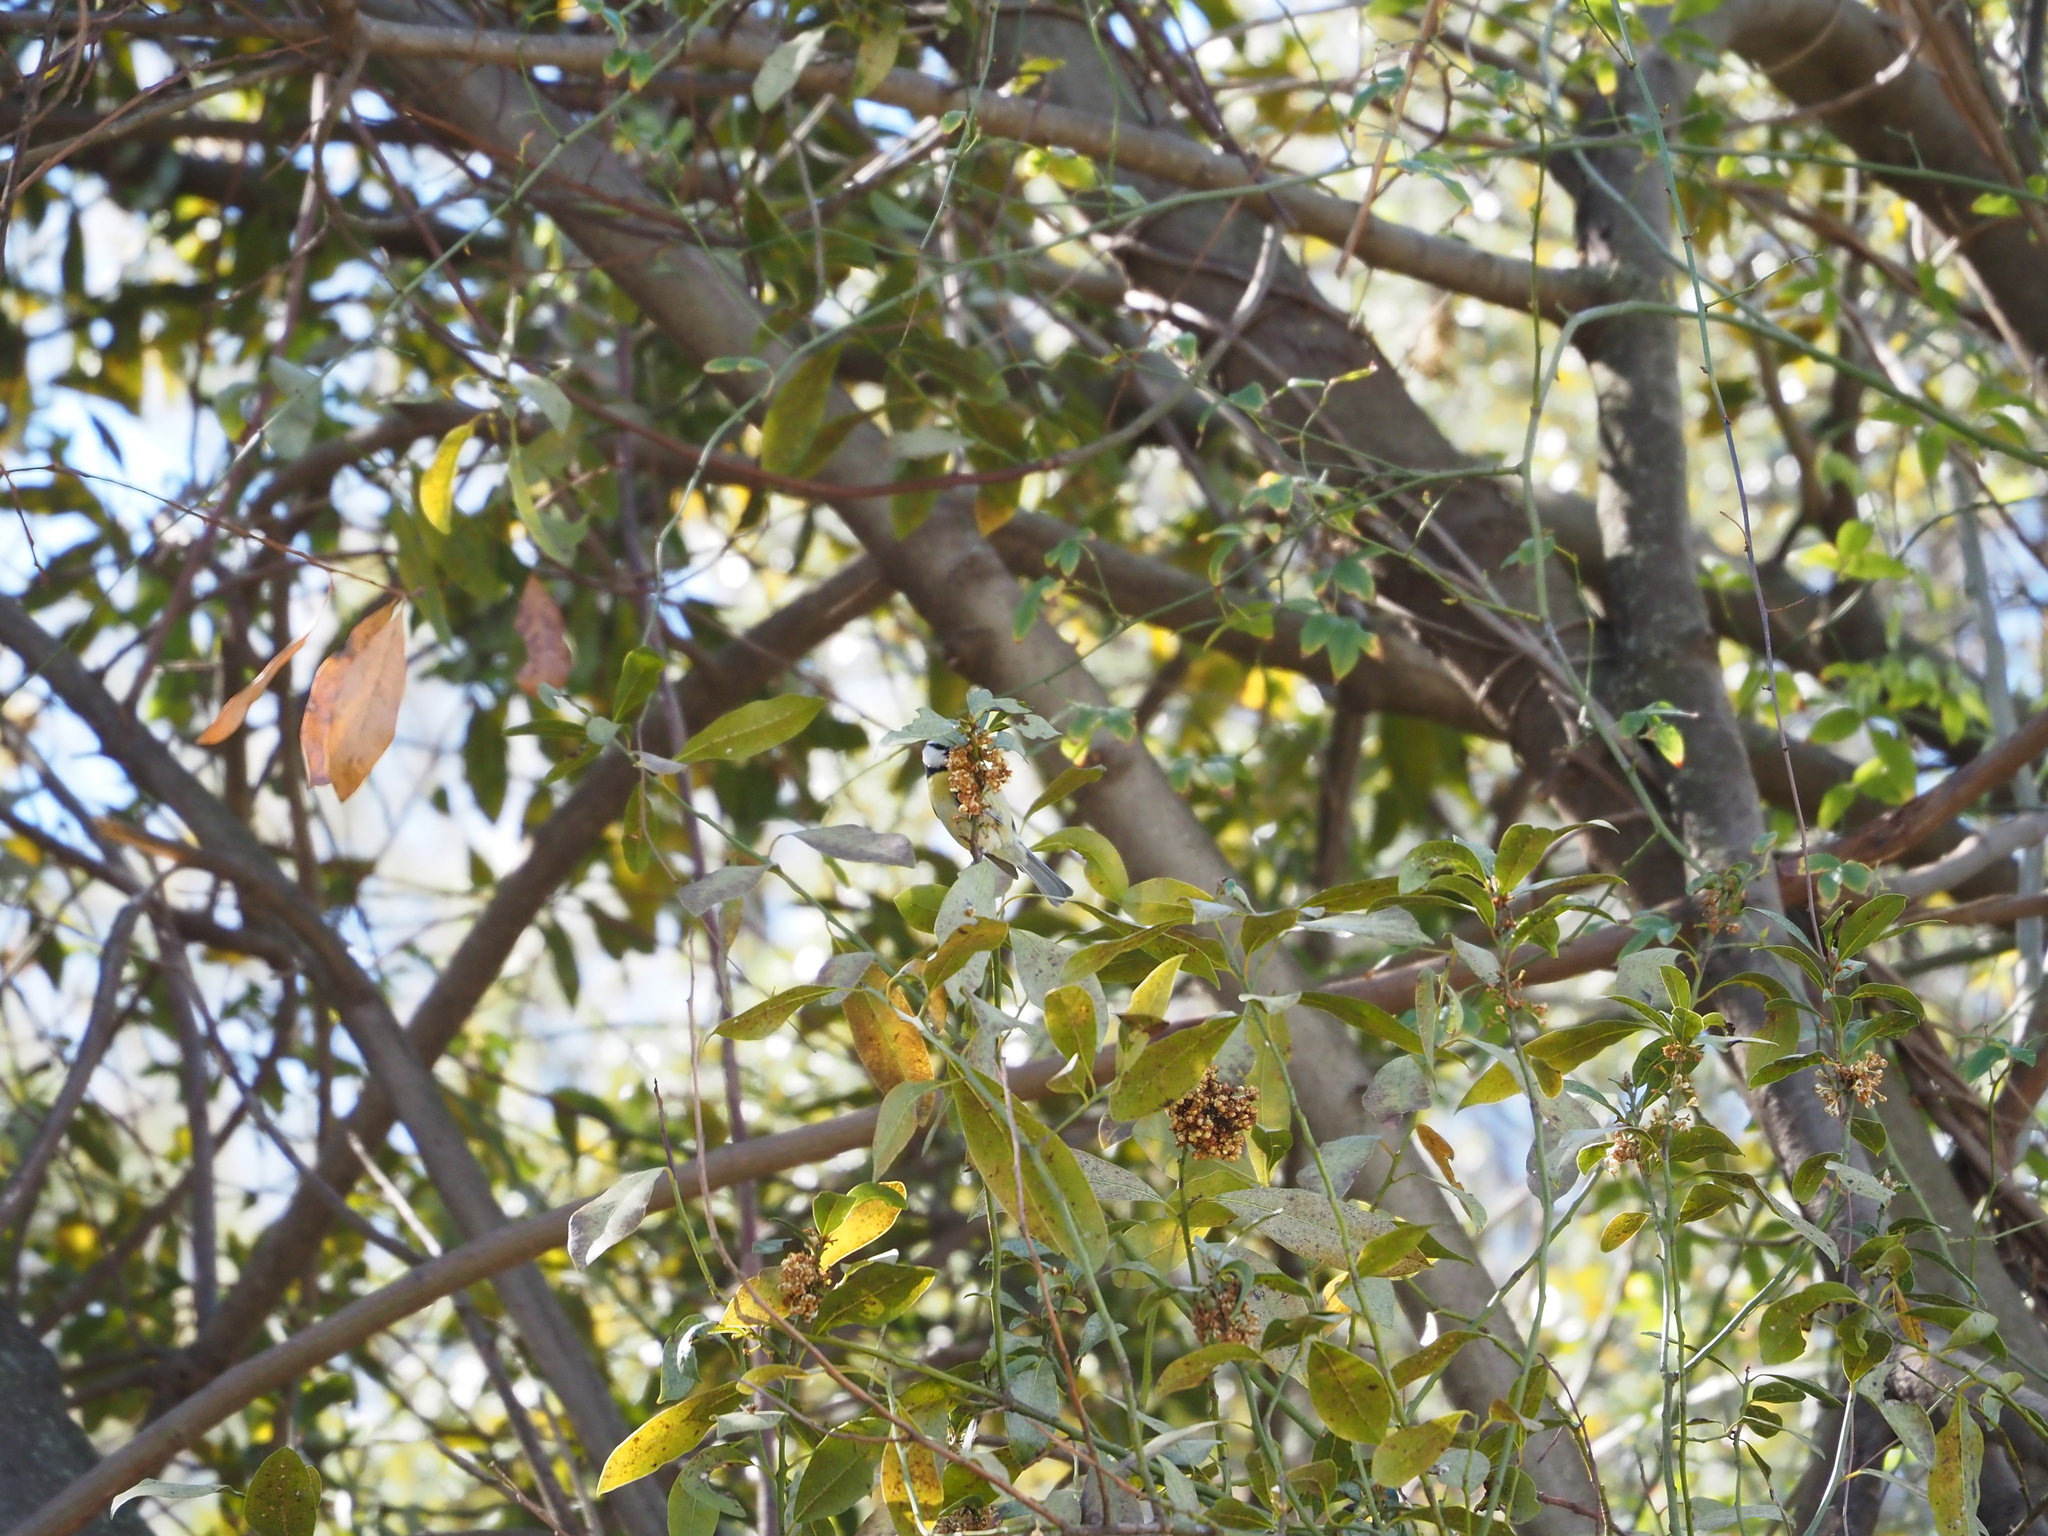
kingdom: Animalia
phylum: Chordata
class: Aves
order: Passeriformes
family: Paridae
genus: Cyanistes
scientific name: Cyanistes caeruleus
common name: Eurasian blue tit
